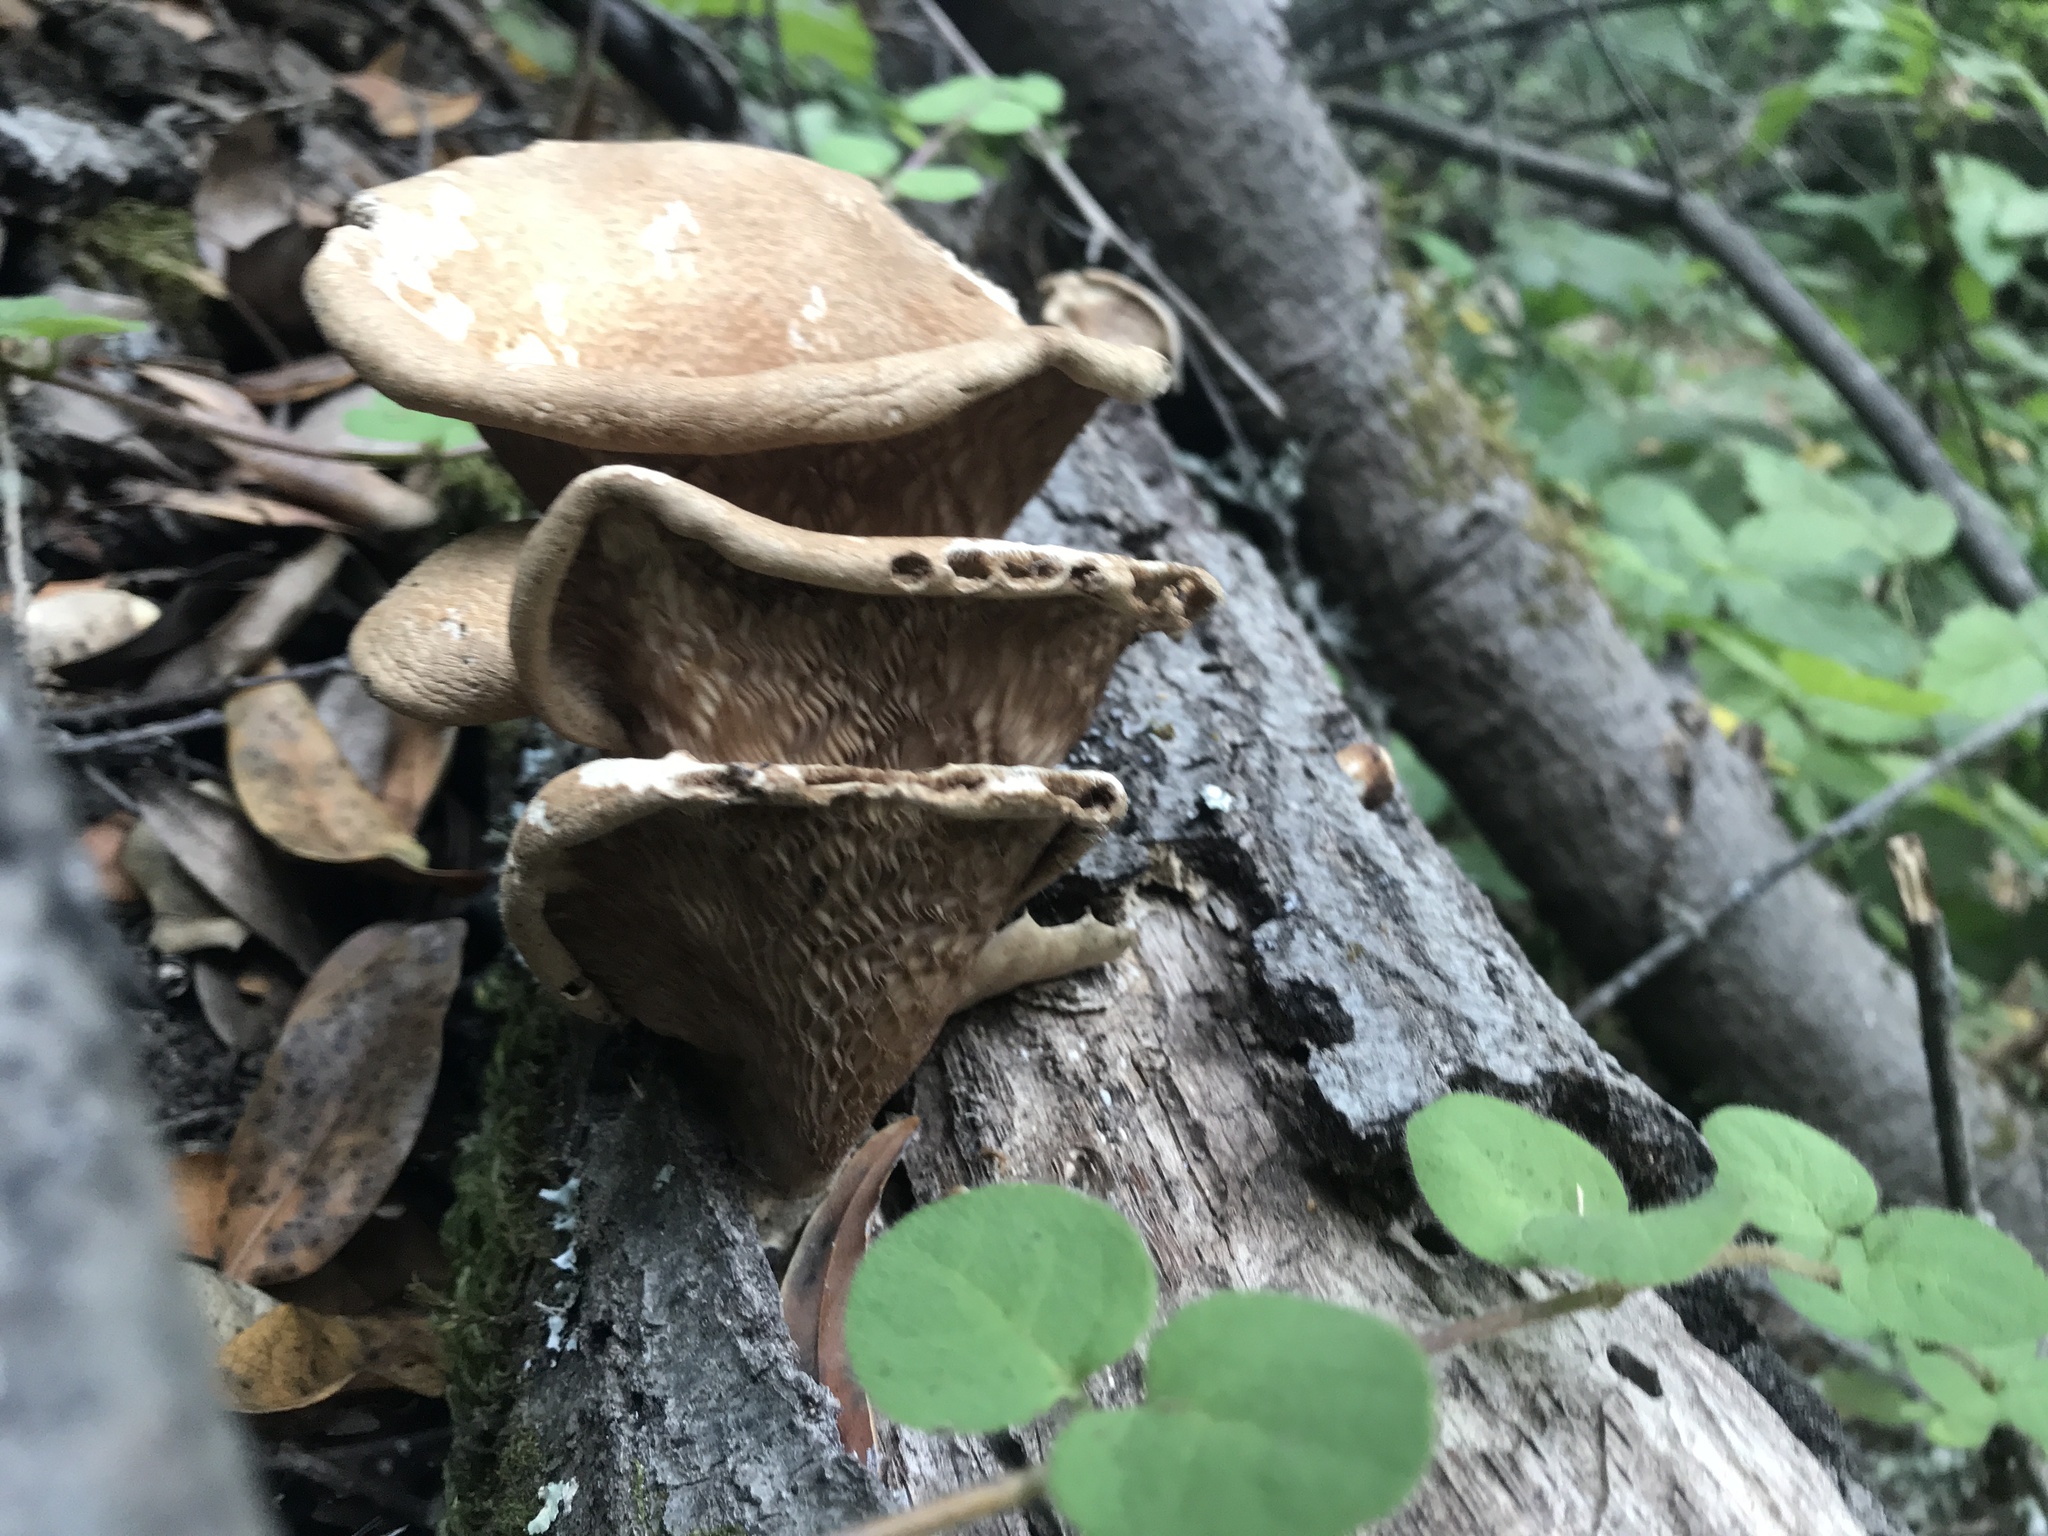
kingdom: Fungi
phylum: Basidiomycota
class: Agaricomycetes
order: Polyporales
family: Panaceae
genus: Panus
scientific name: Panus conchatus
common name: Lilac oysterling
